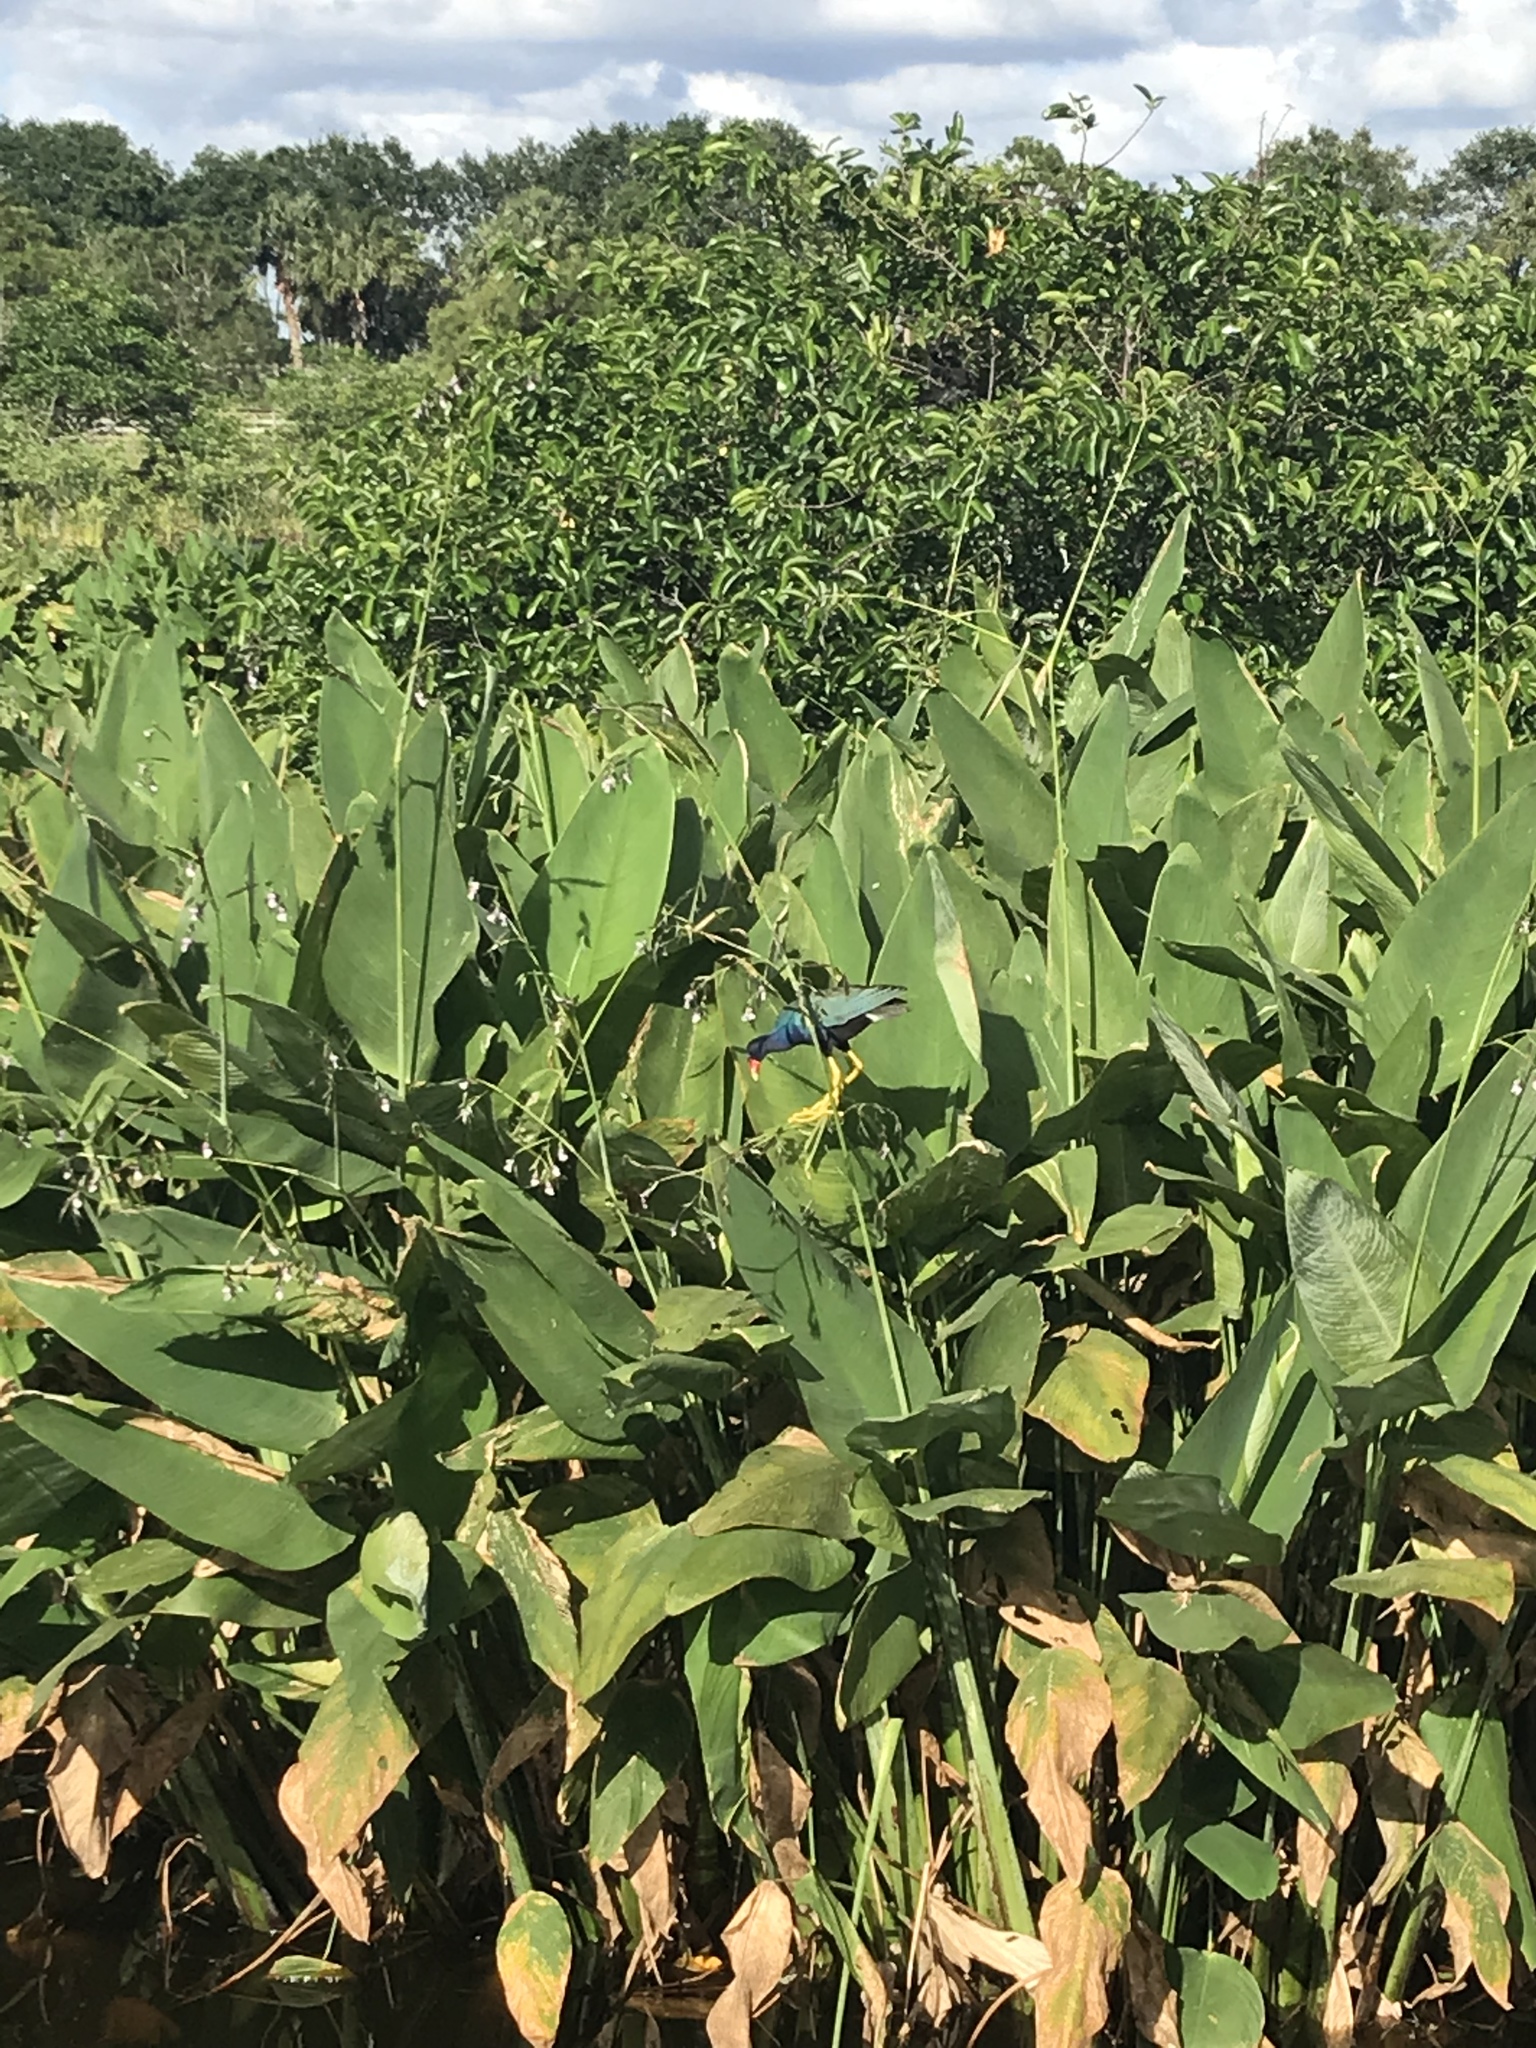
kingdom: Plantae
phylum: Tracheophyta
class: Liliopsida
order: Zingiberales
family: Marantaceae
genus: Thalia
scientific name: Thalia geniculata
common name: Arrowroot
